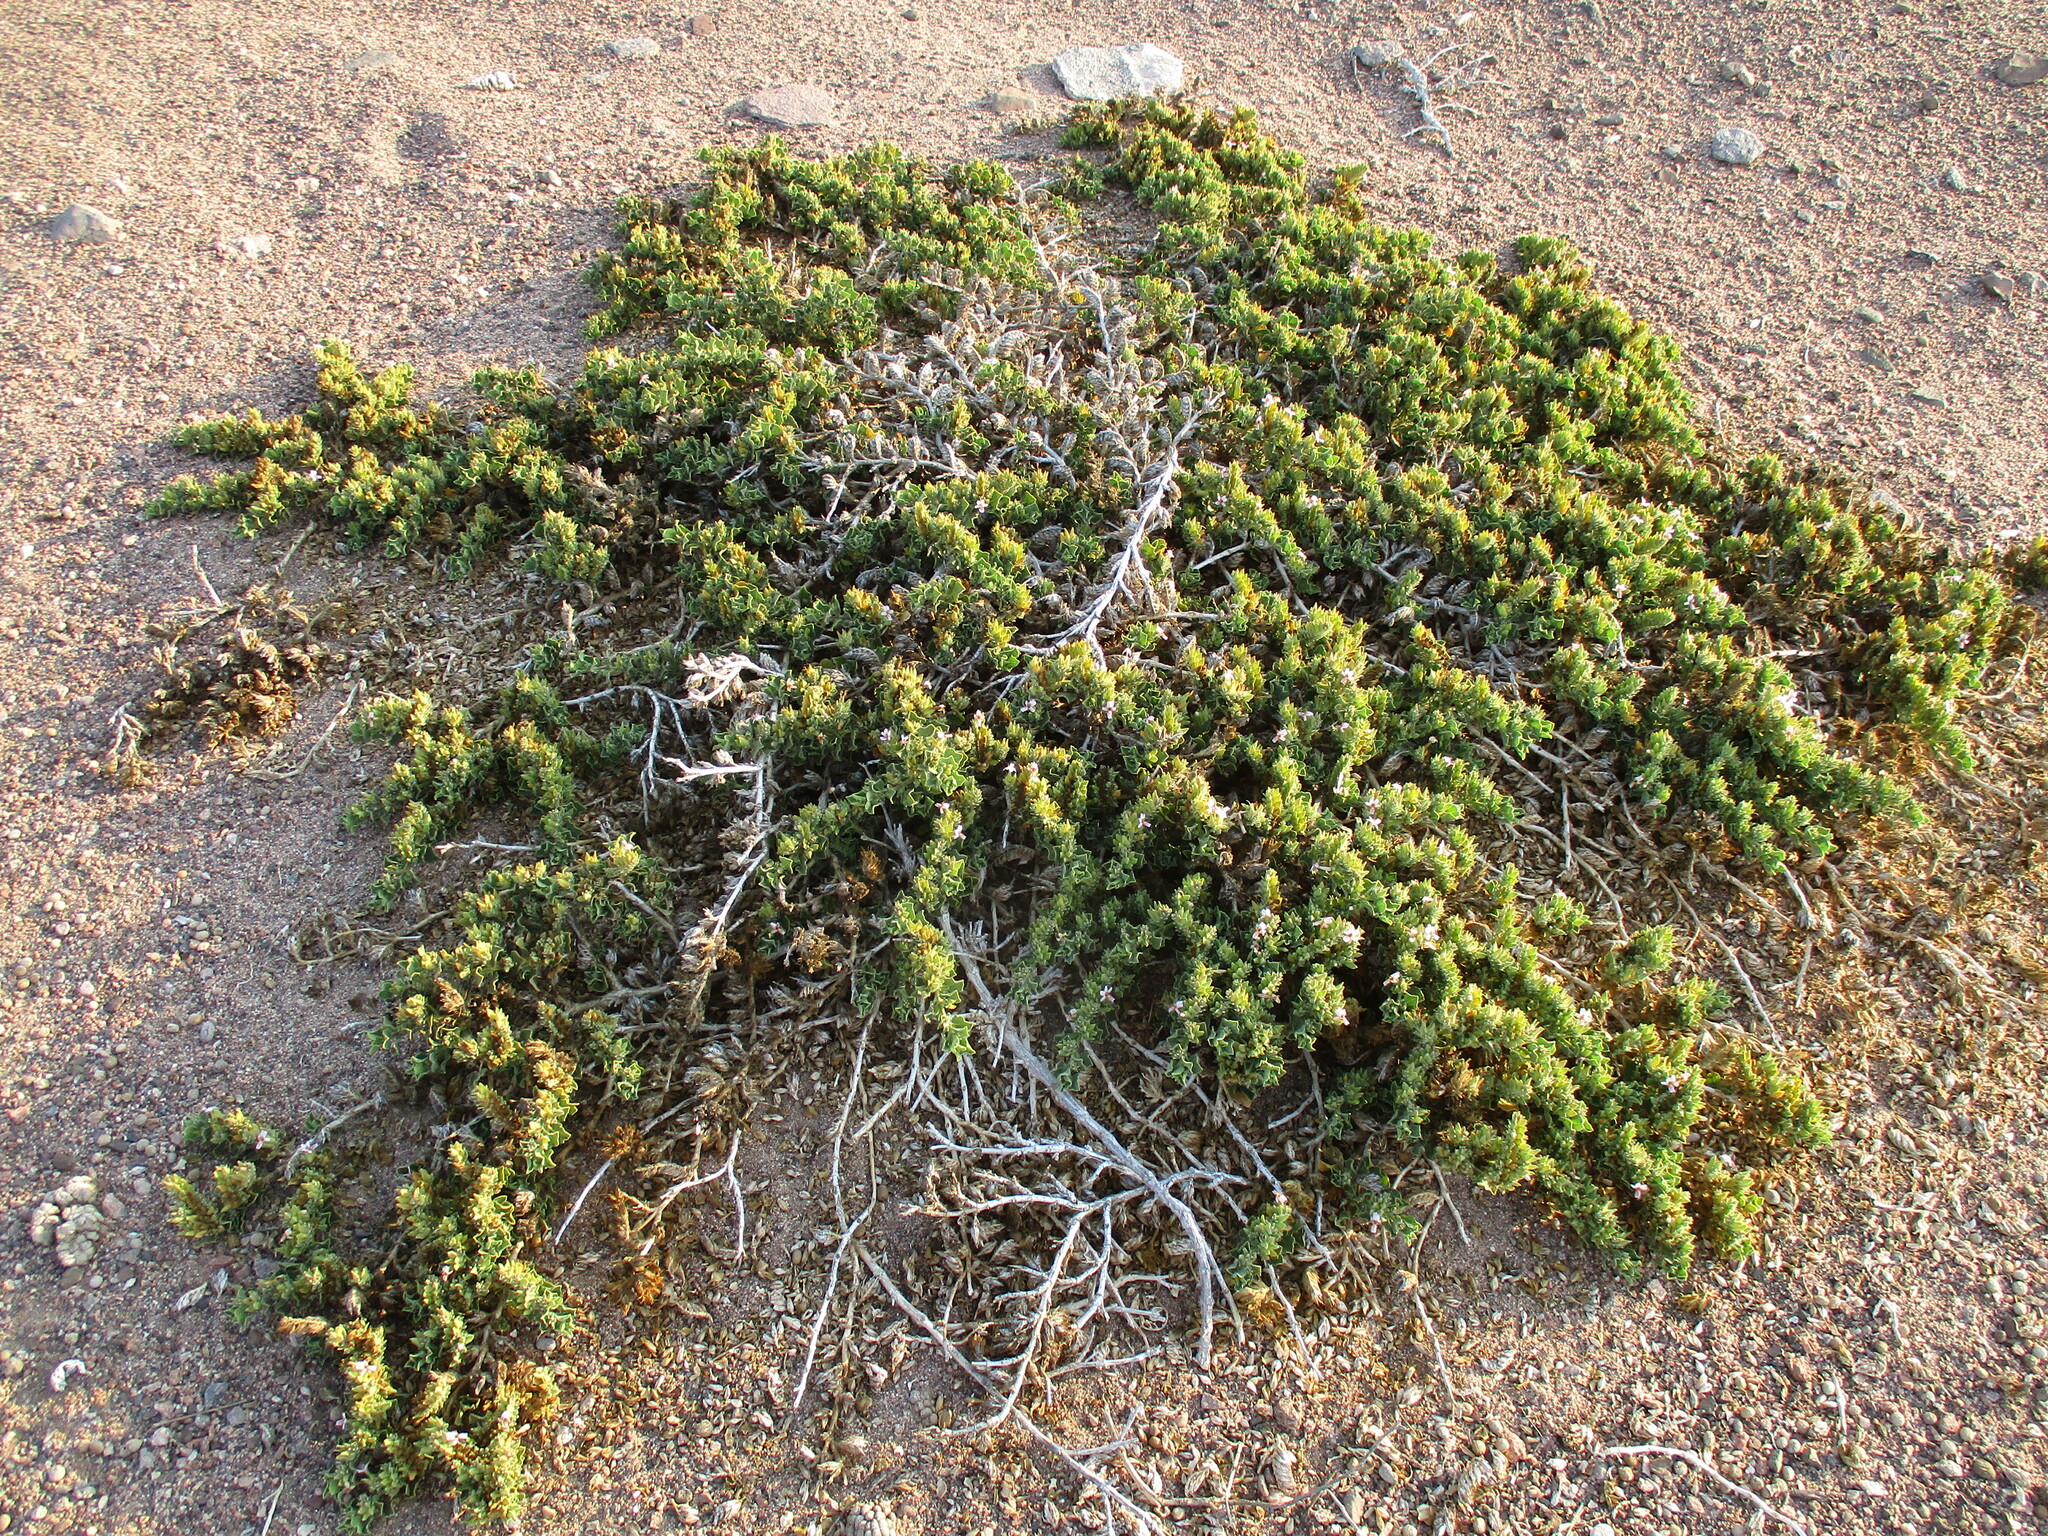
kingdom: Plantae
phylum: Tracheophyta
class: Magnoliopsida
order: Lamiales
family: Acanthaceae
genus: Petalidium
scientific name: Petalidium angustitubum
